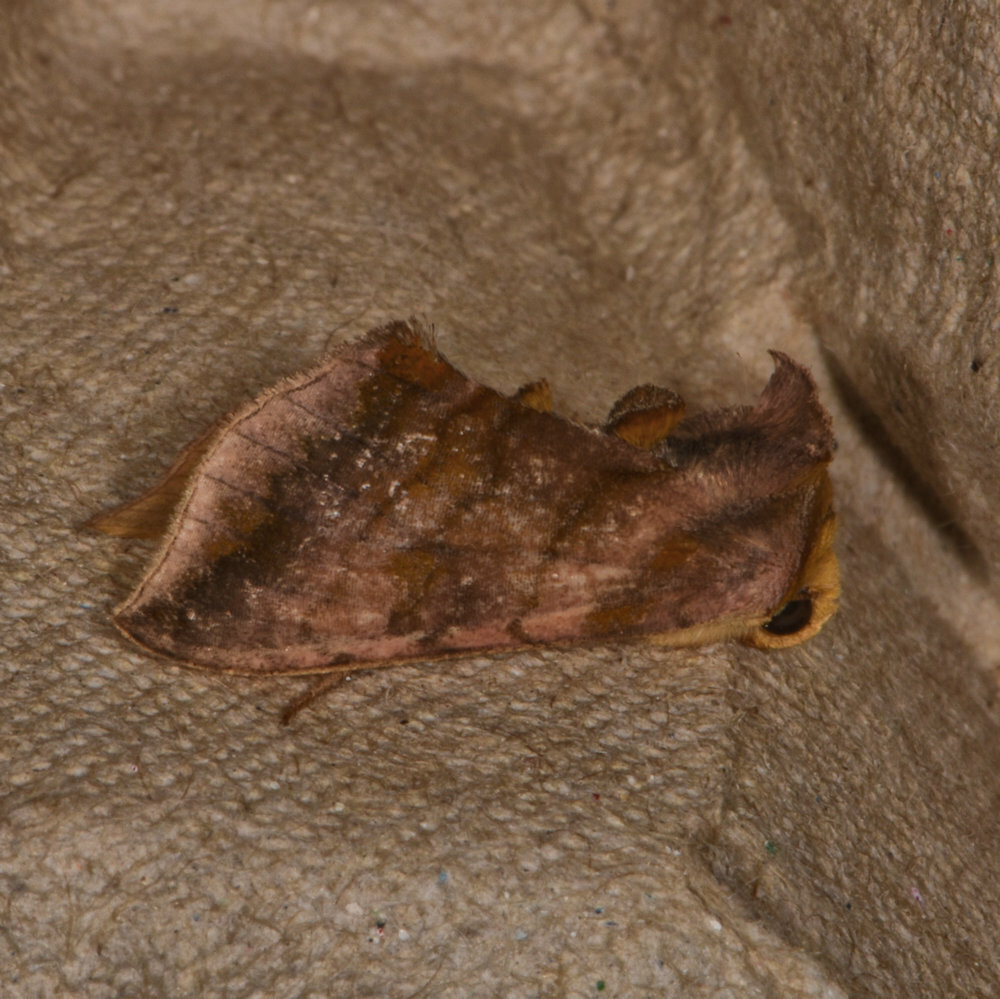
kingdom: Animalia
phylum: Arthropoda
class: Insecta
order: Lepidoptera
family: Noctuidae
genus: Allagrapha
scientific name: Allagrapha aerea
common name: Unspotted looper moth
